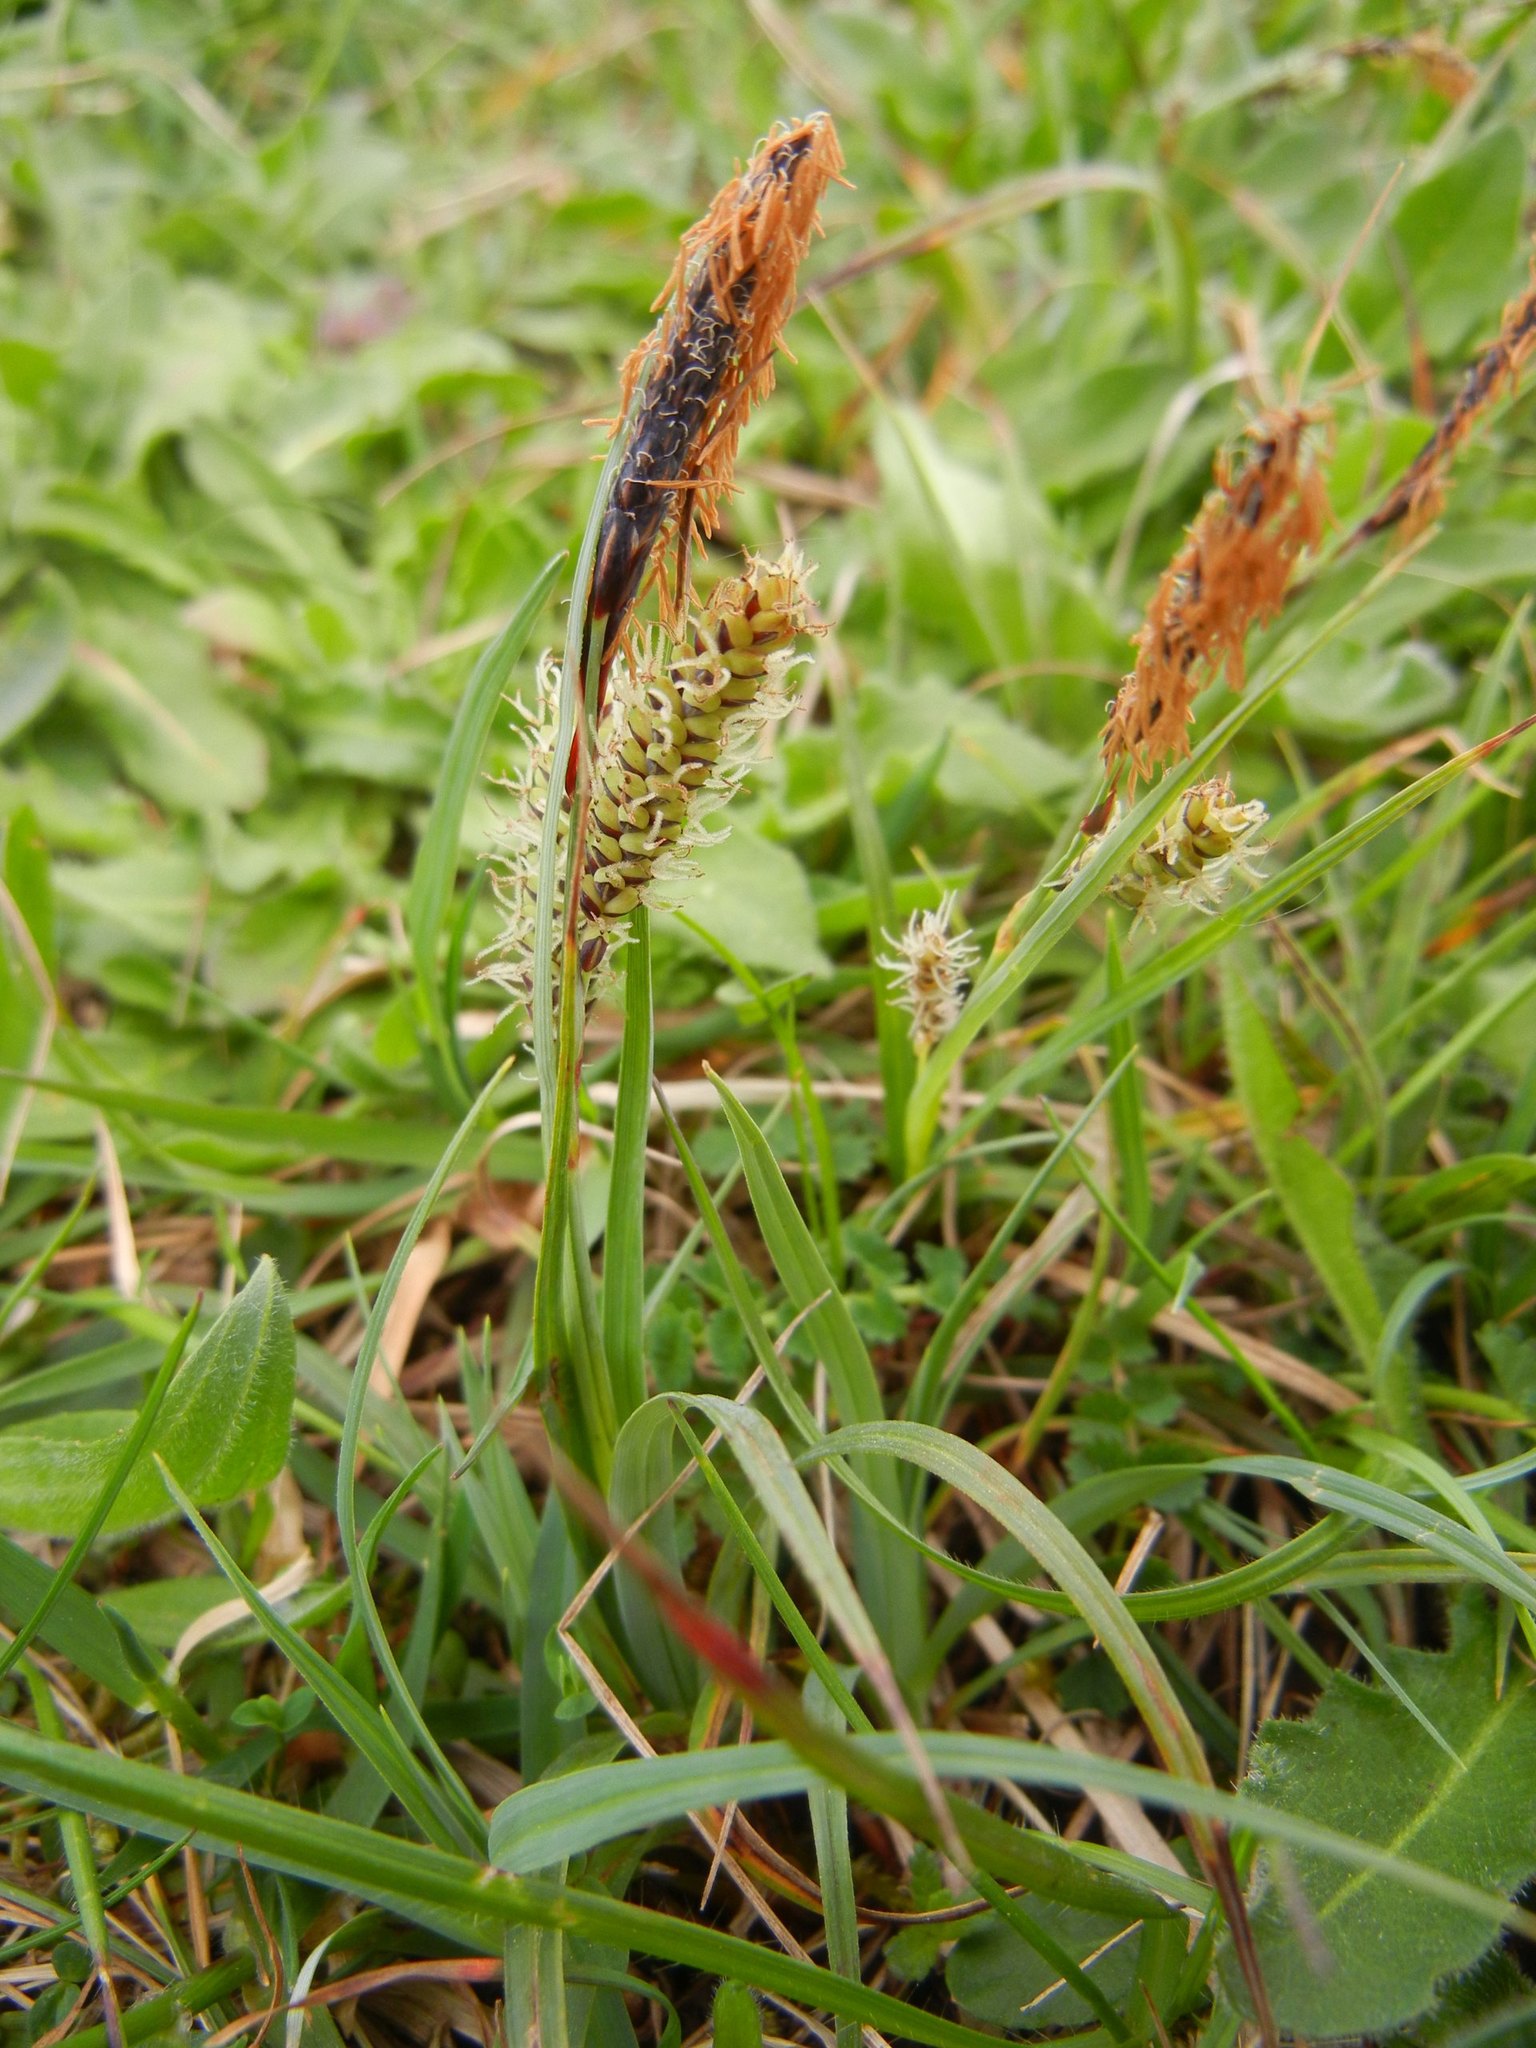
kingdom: Plantae
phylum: Tracheophyta
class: Liliopsida
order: Poales
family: Cyperaceae
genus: Carex
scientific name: Carex flacca
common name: Glaucous sedge
